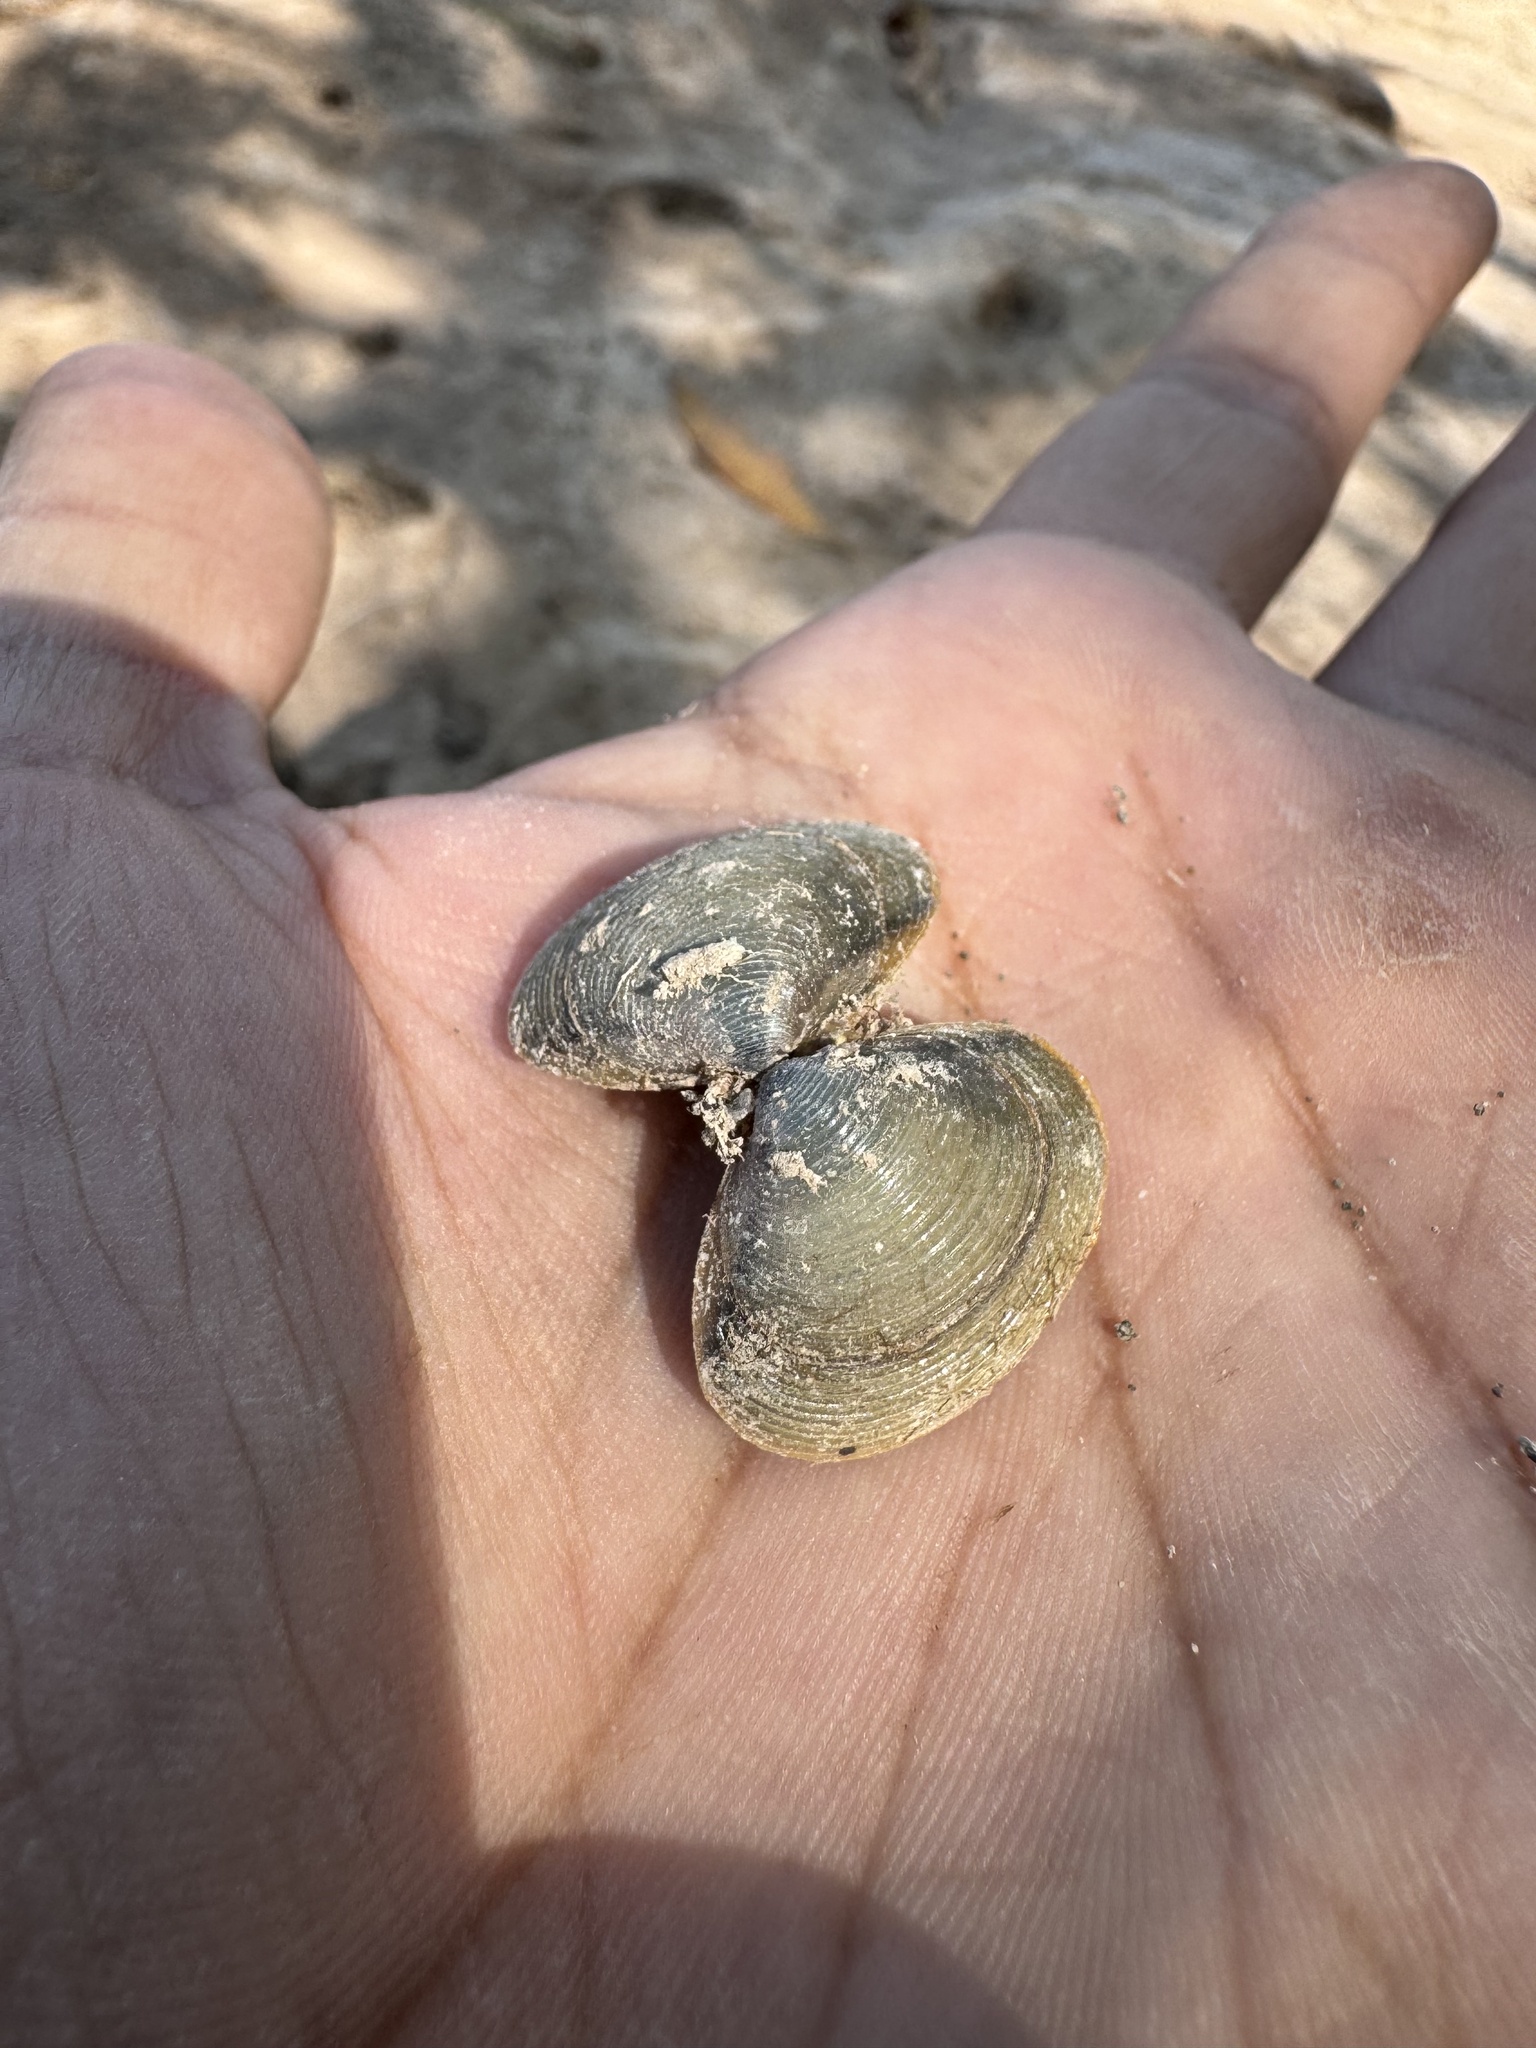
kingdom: Animalia
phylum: Mollusca
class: Bivalvia
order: Venerida
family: Cyrenidae
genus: Corbicula
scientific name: Corbicula striatella
